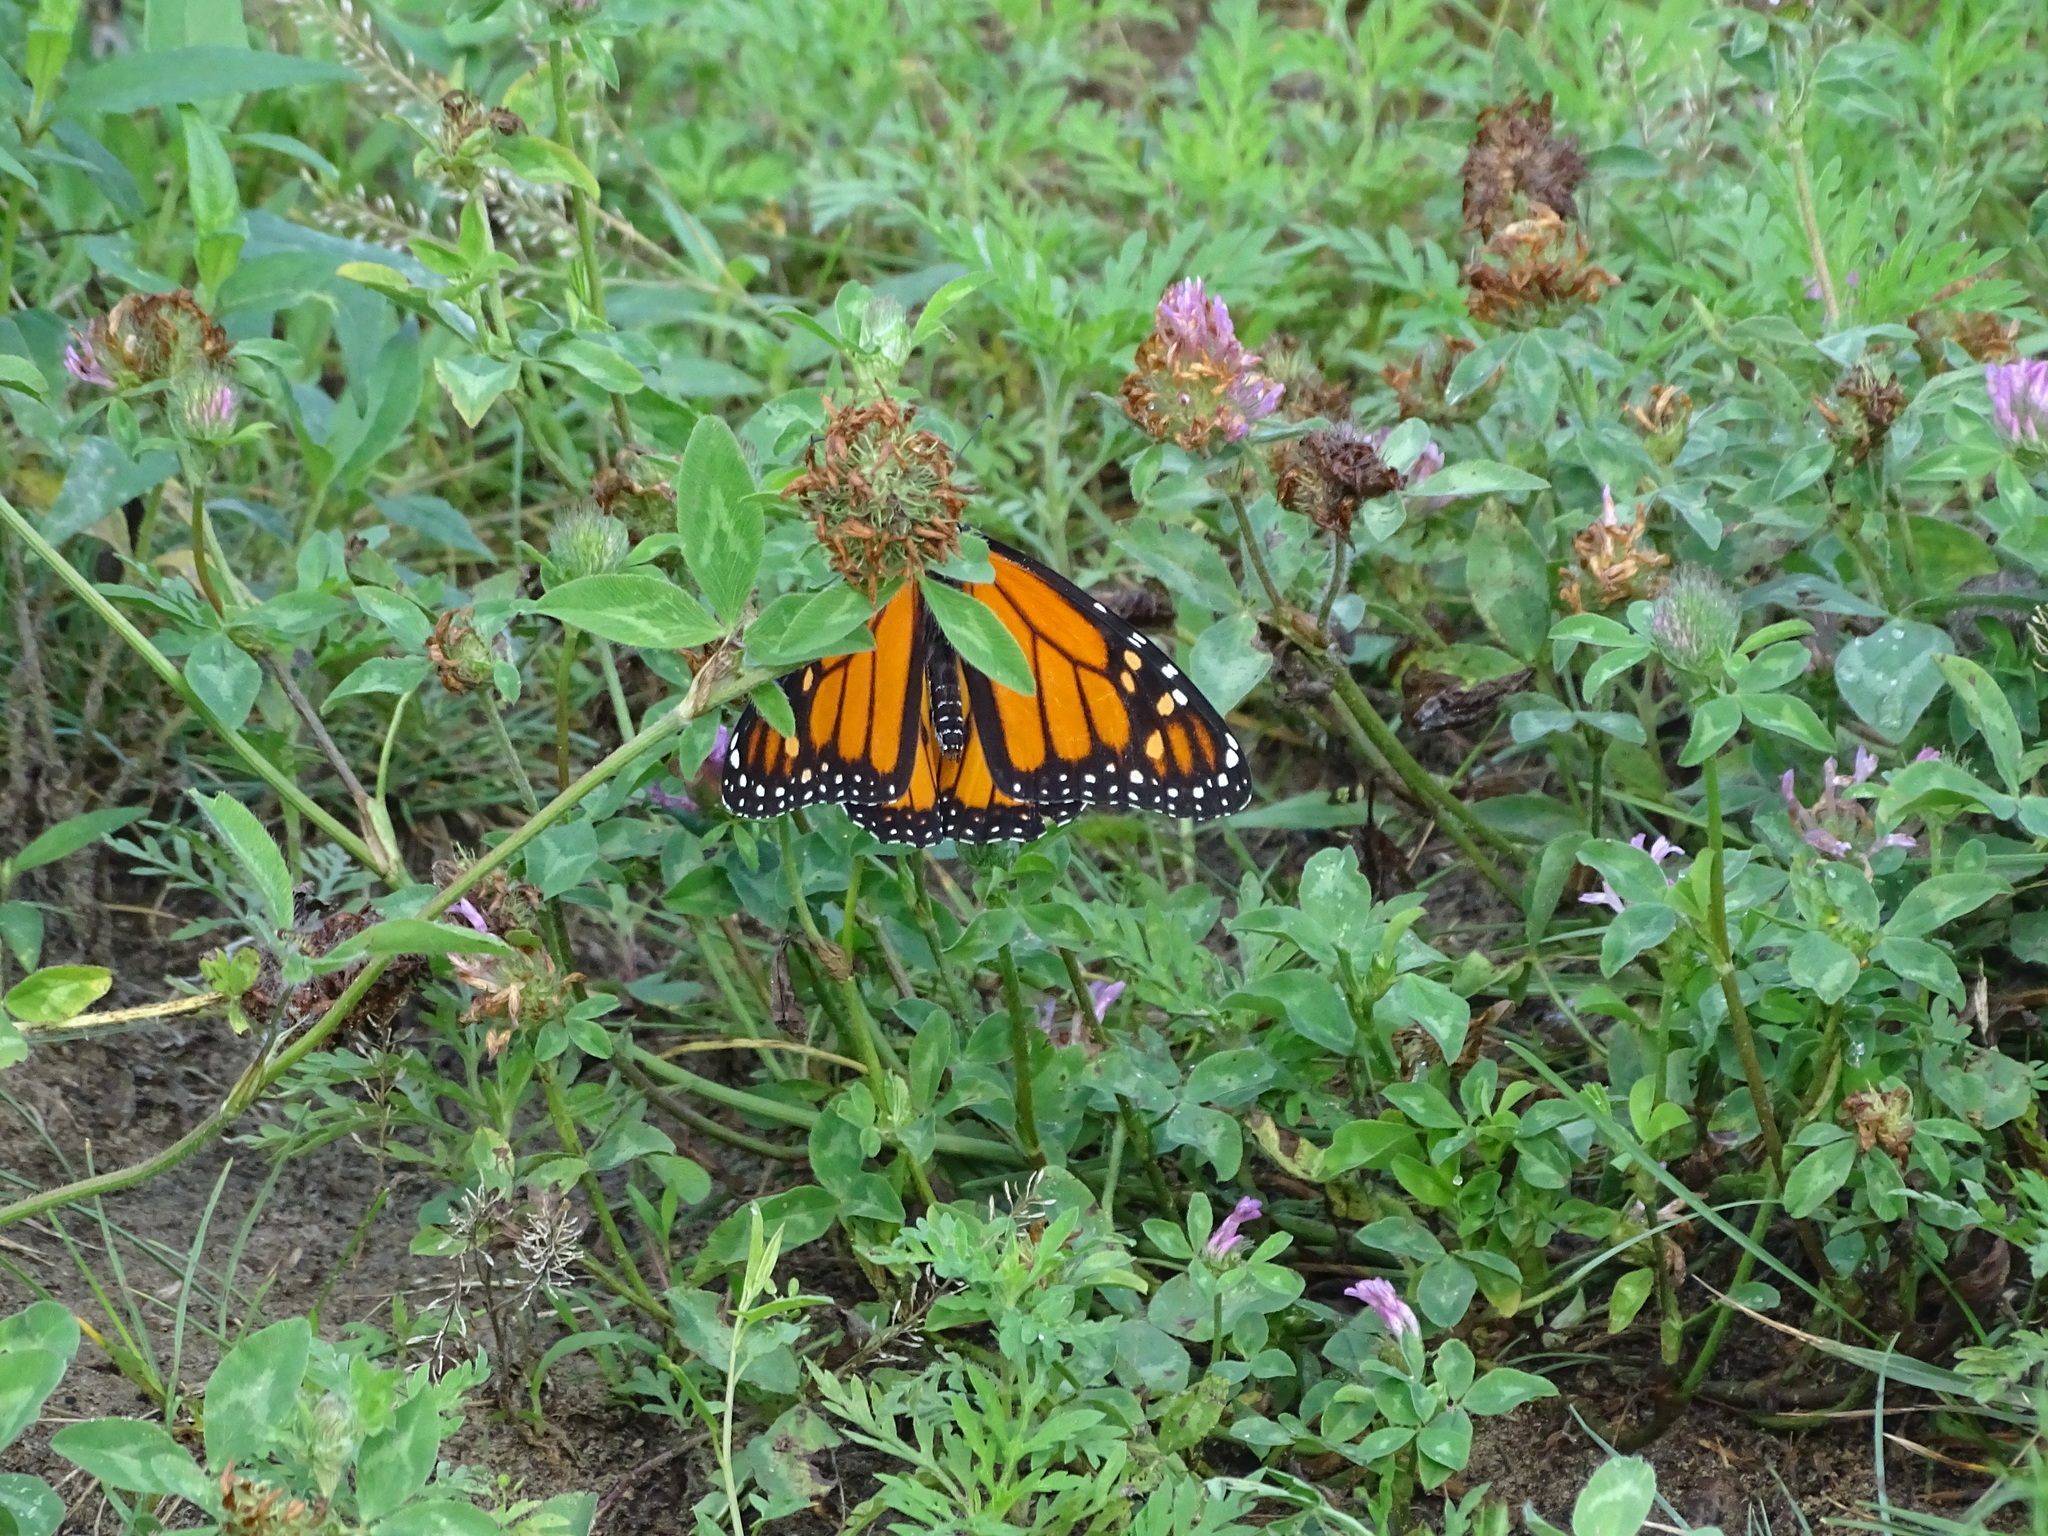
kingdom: Animalia
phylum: Arthropoda
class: Insecta
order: Lepidoptera
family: Nymphalidae
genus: Danaus
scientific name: Danaus plexippus
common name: Monarch
